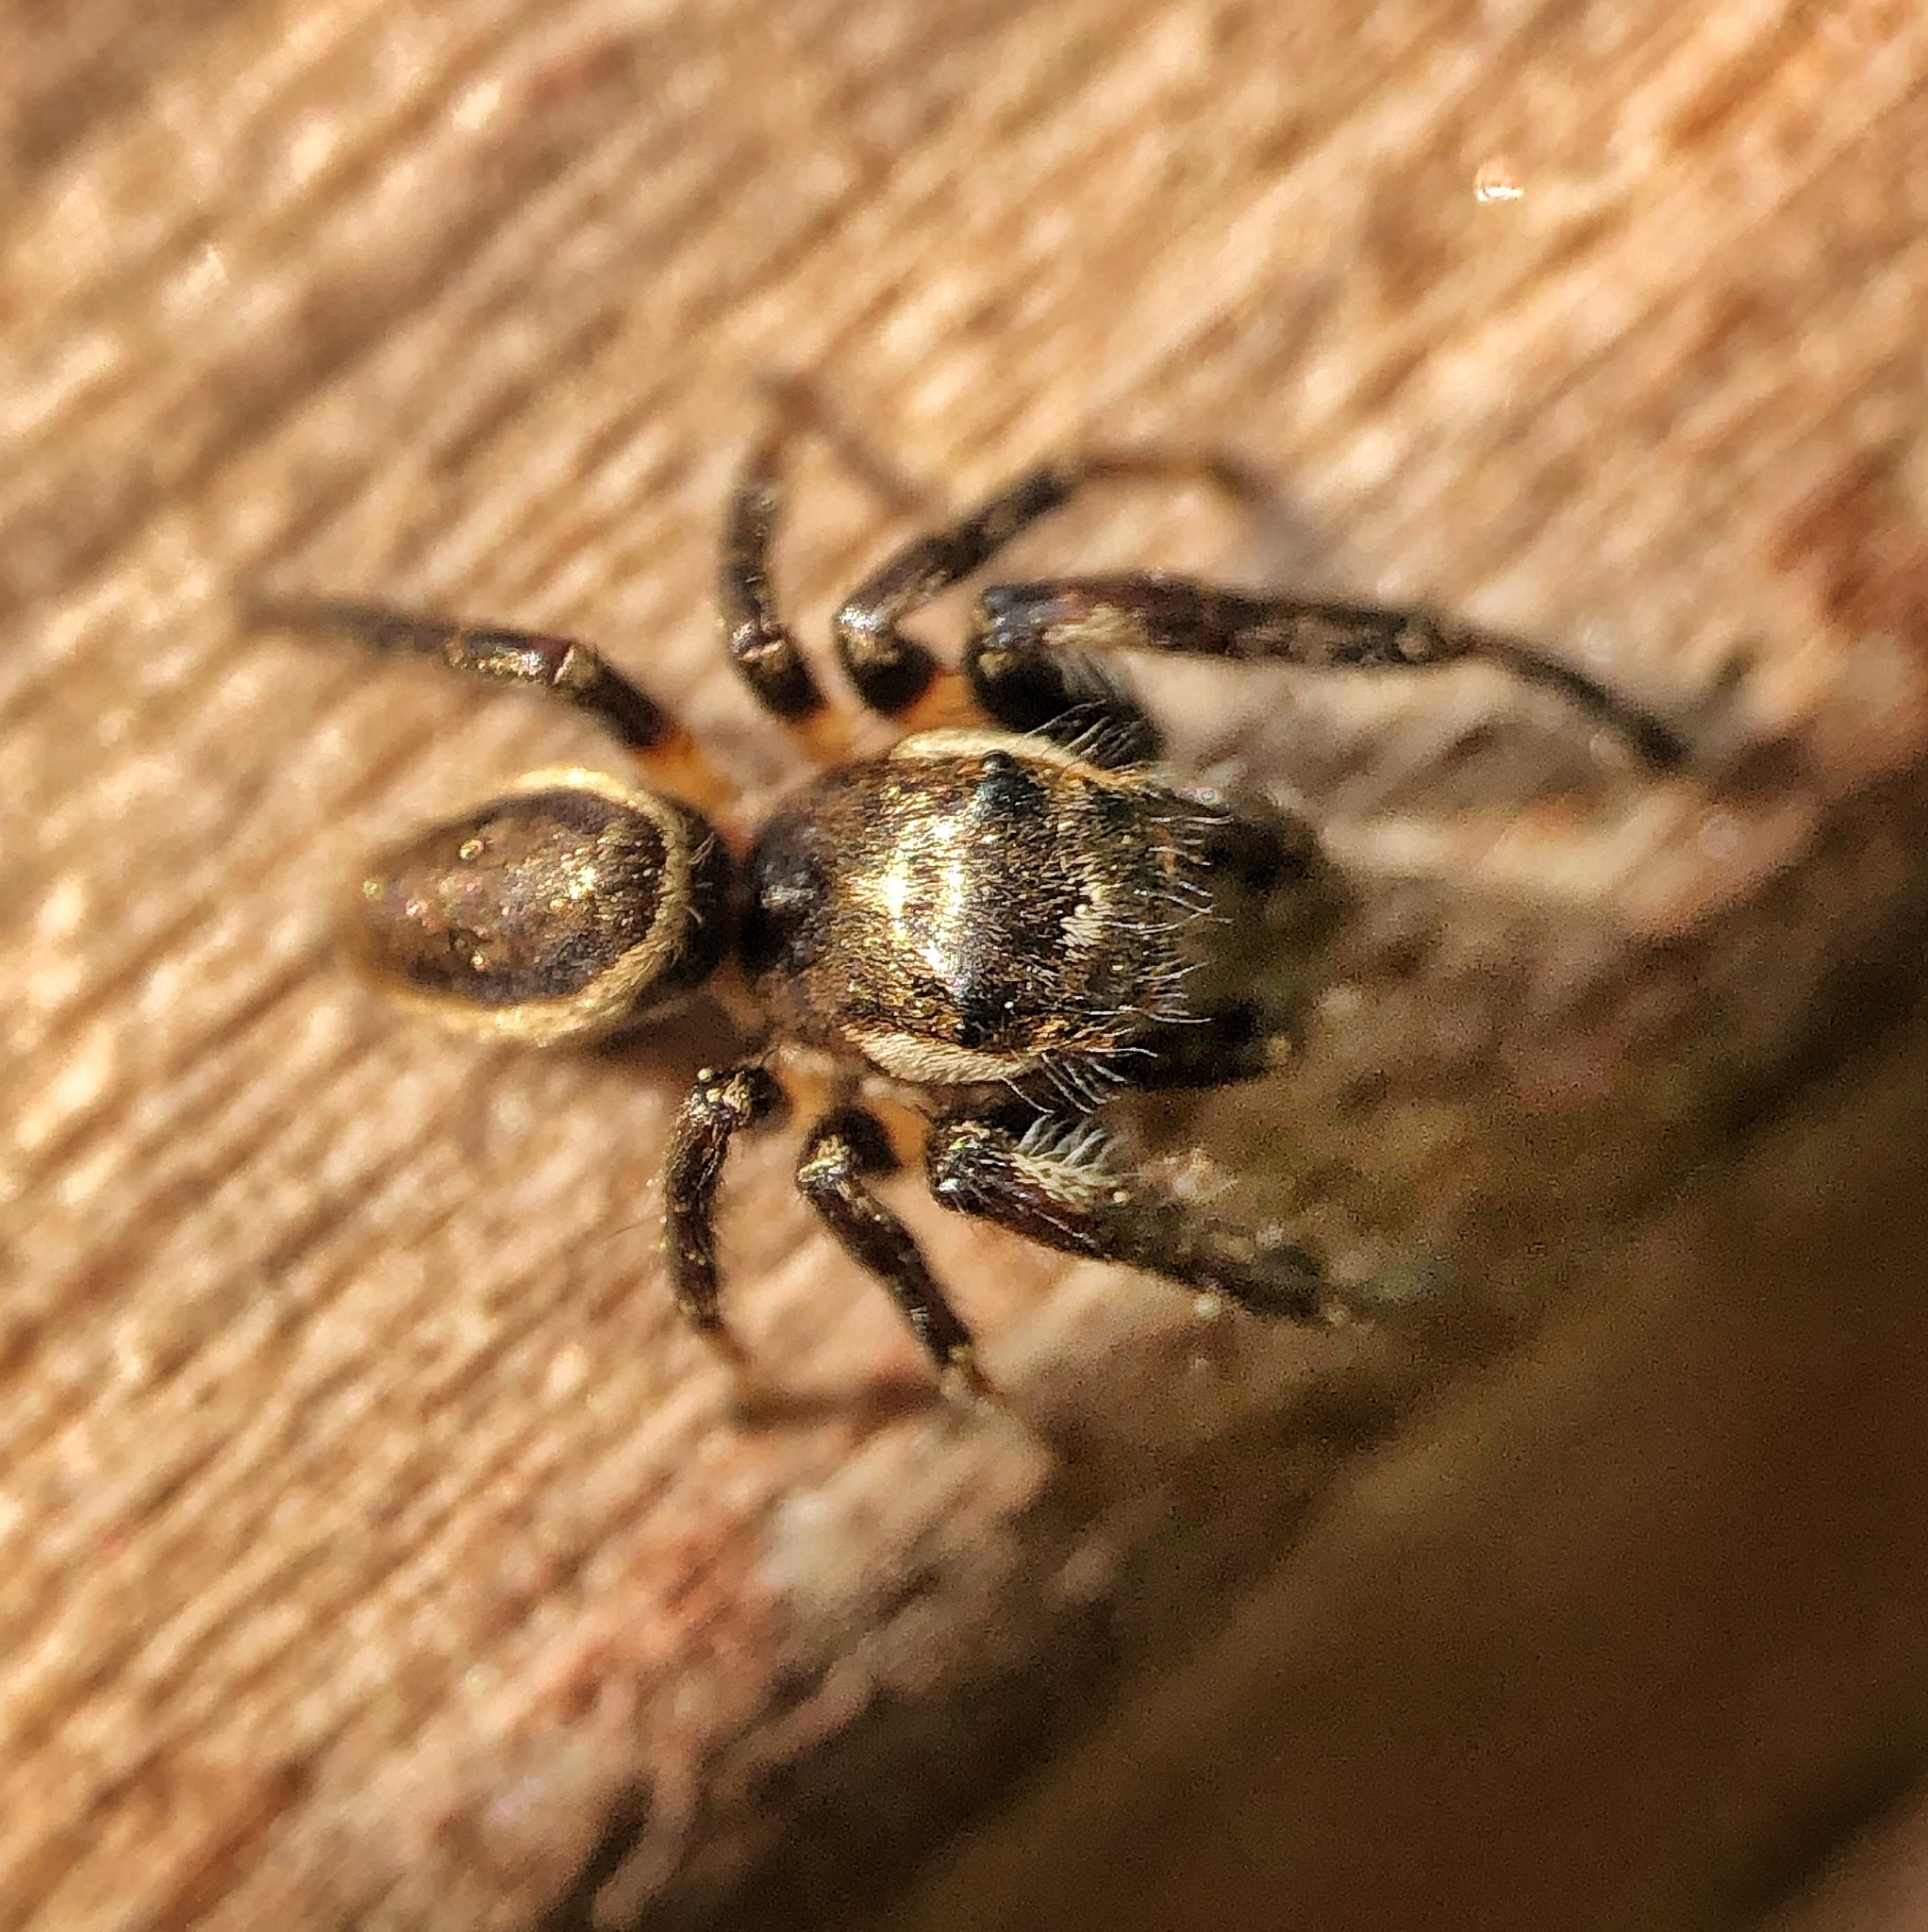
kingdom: Animalia
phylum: Arthropoda
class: Arachnida
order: Araneae
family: Salticidae
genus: Eris
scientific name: Eris militaris
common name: Bronze jumper
